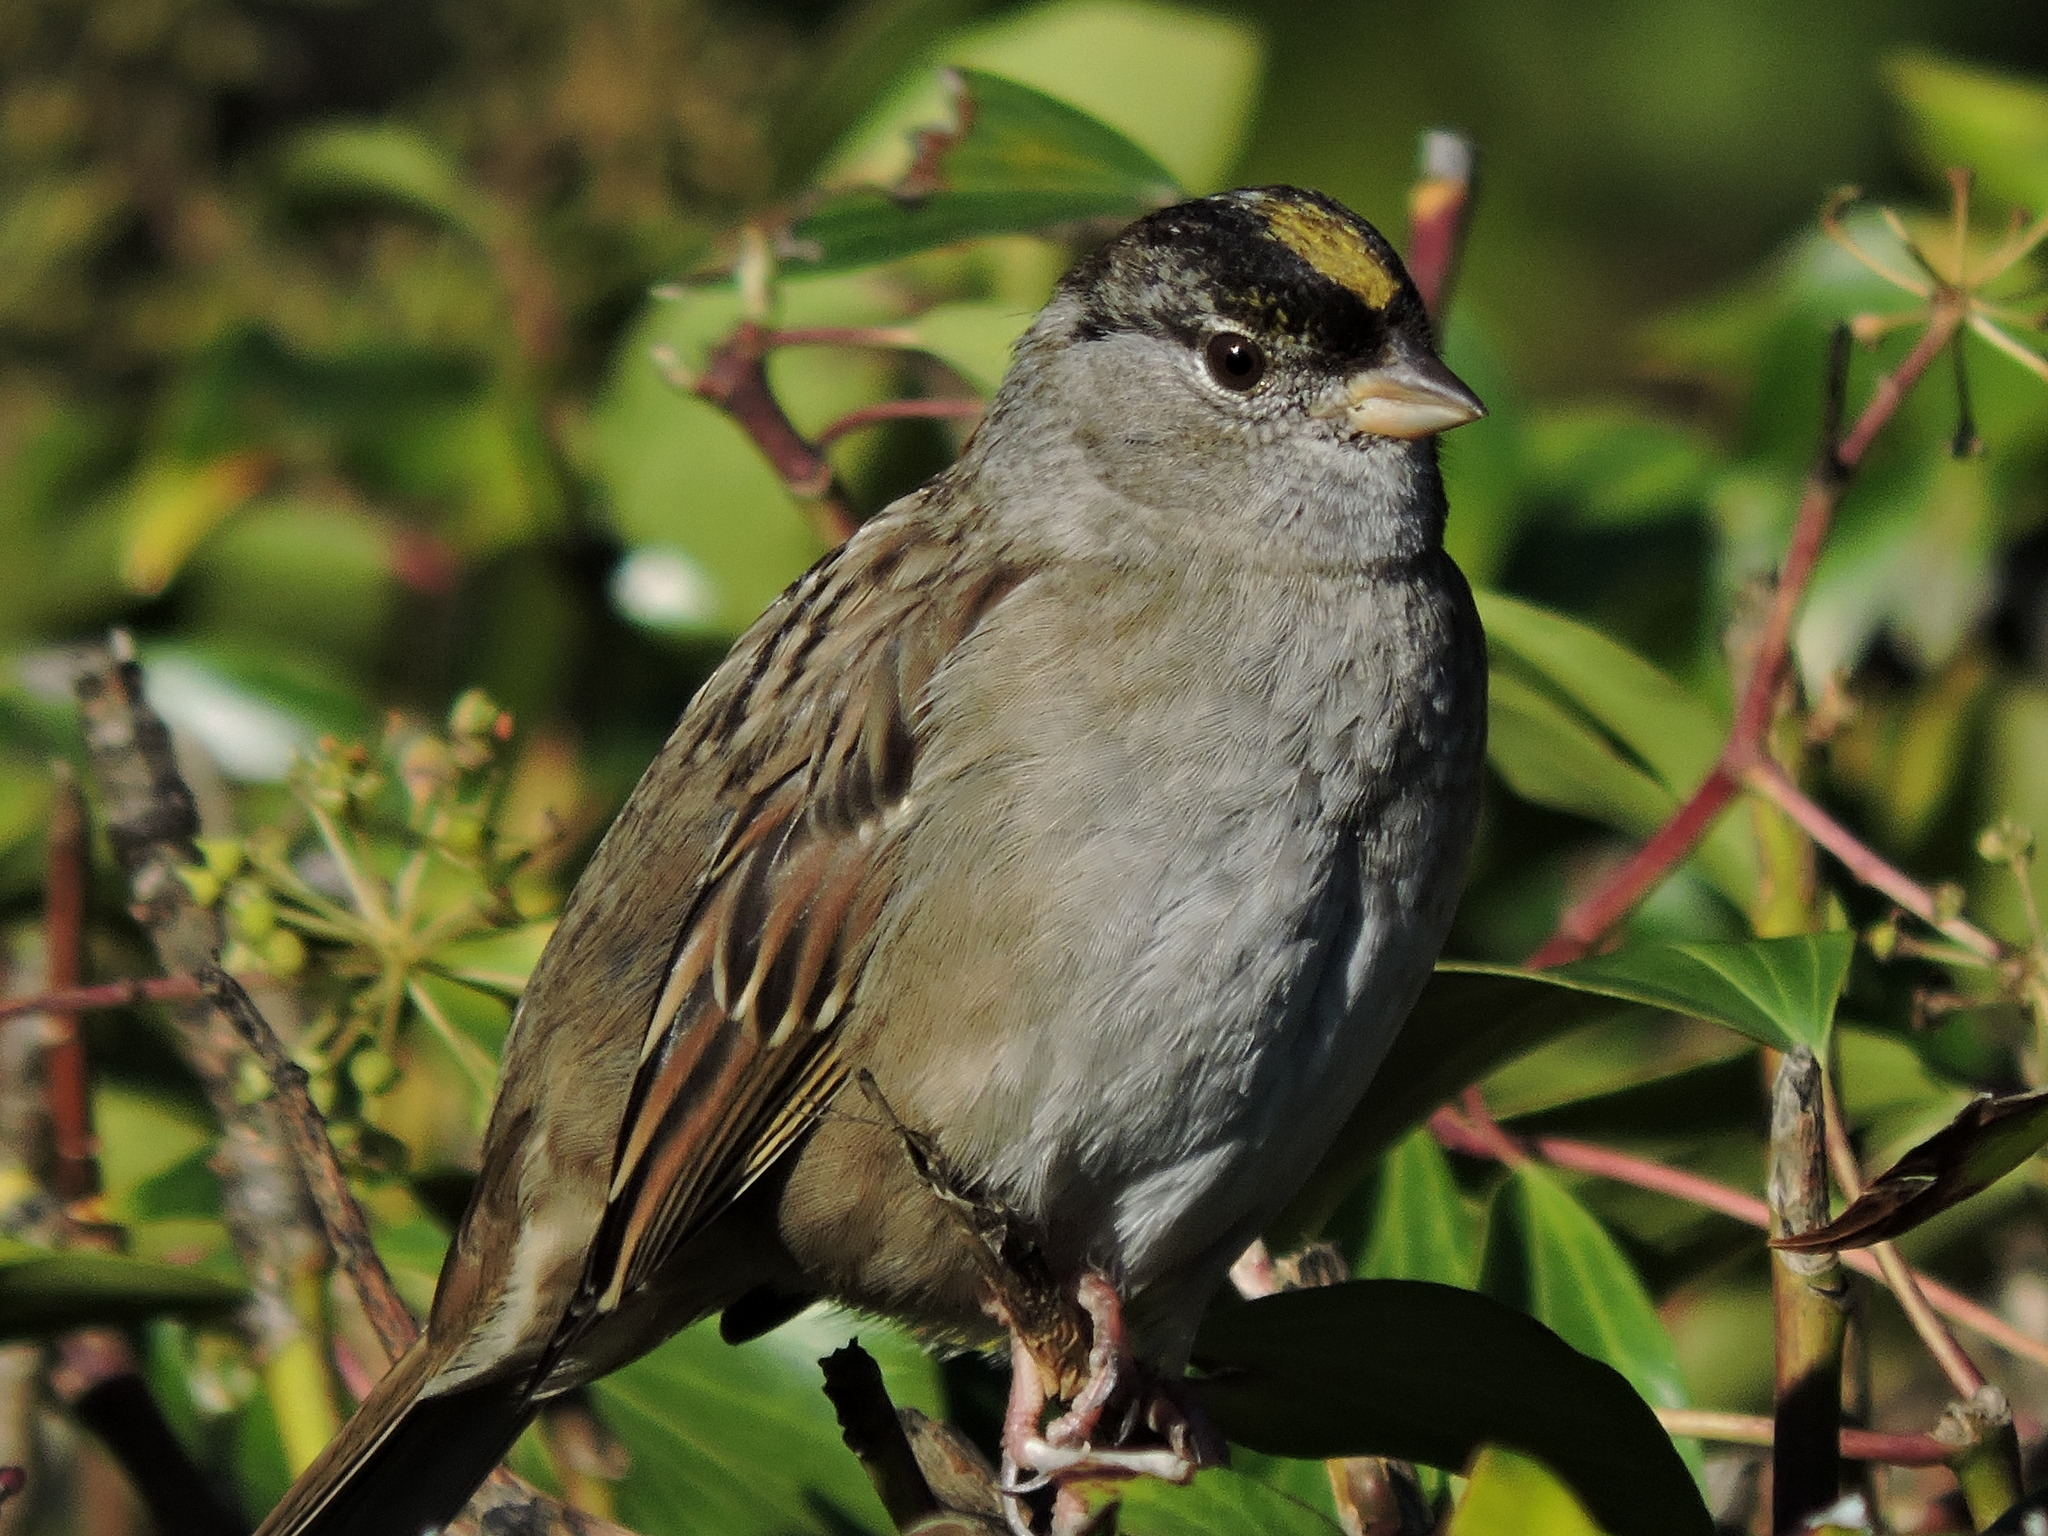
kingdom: Animalia
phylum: Chordata
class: Aves
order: Passeriformes
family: Passerellidae
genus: Zonotrichia
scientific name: Zonotrichia atricapilla
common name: Golden-crowned sparrow
